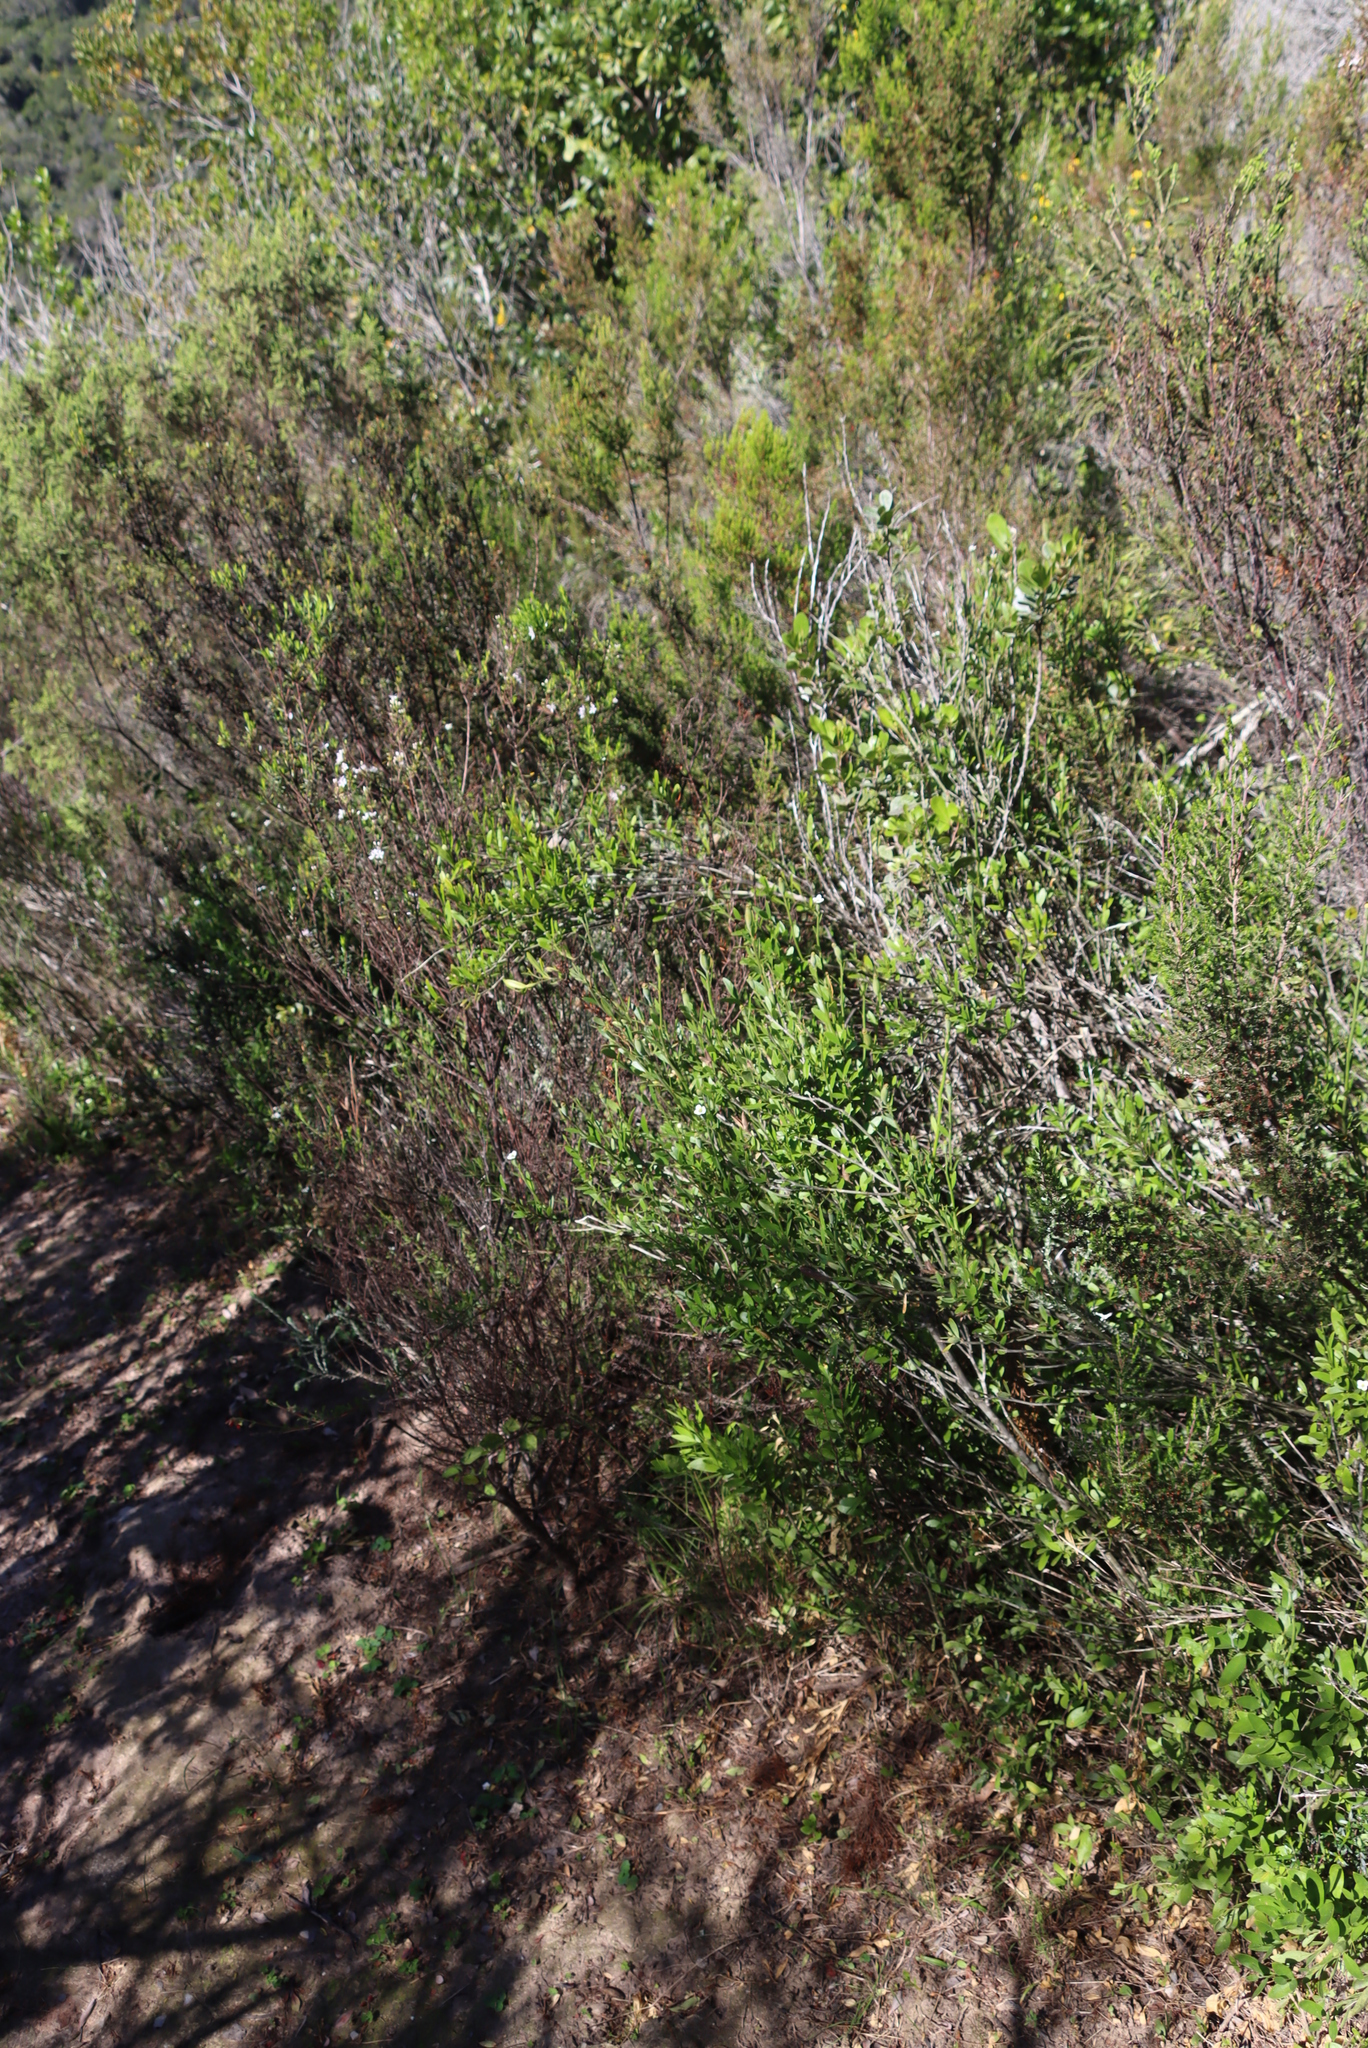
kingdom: Plantae
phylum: Tracheophyta
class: Magnoliopsida
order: Solanales
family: Montiniaceae
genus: Montinia
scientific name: Montinia caryophyllacea
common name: Wild clove-bush
